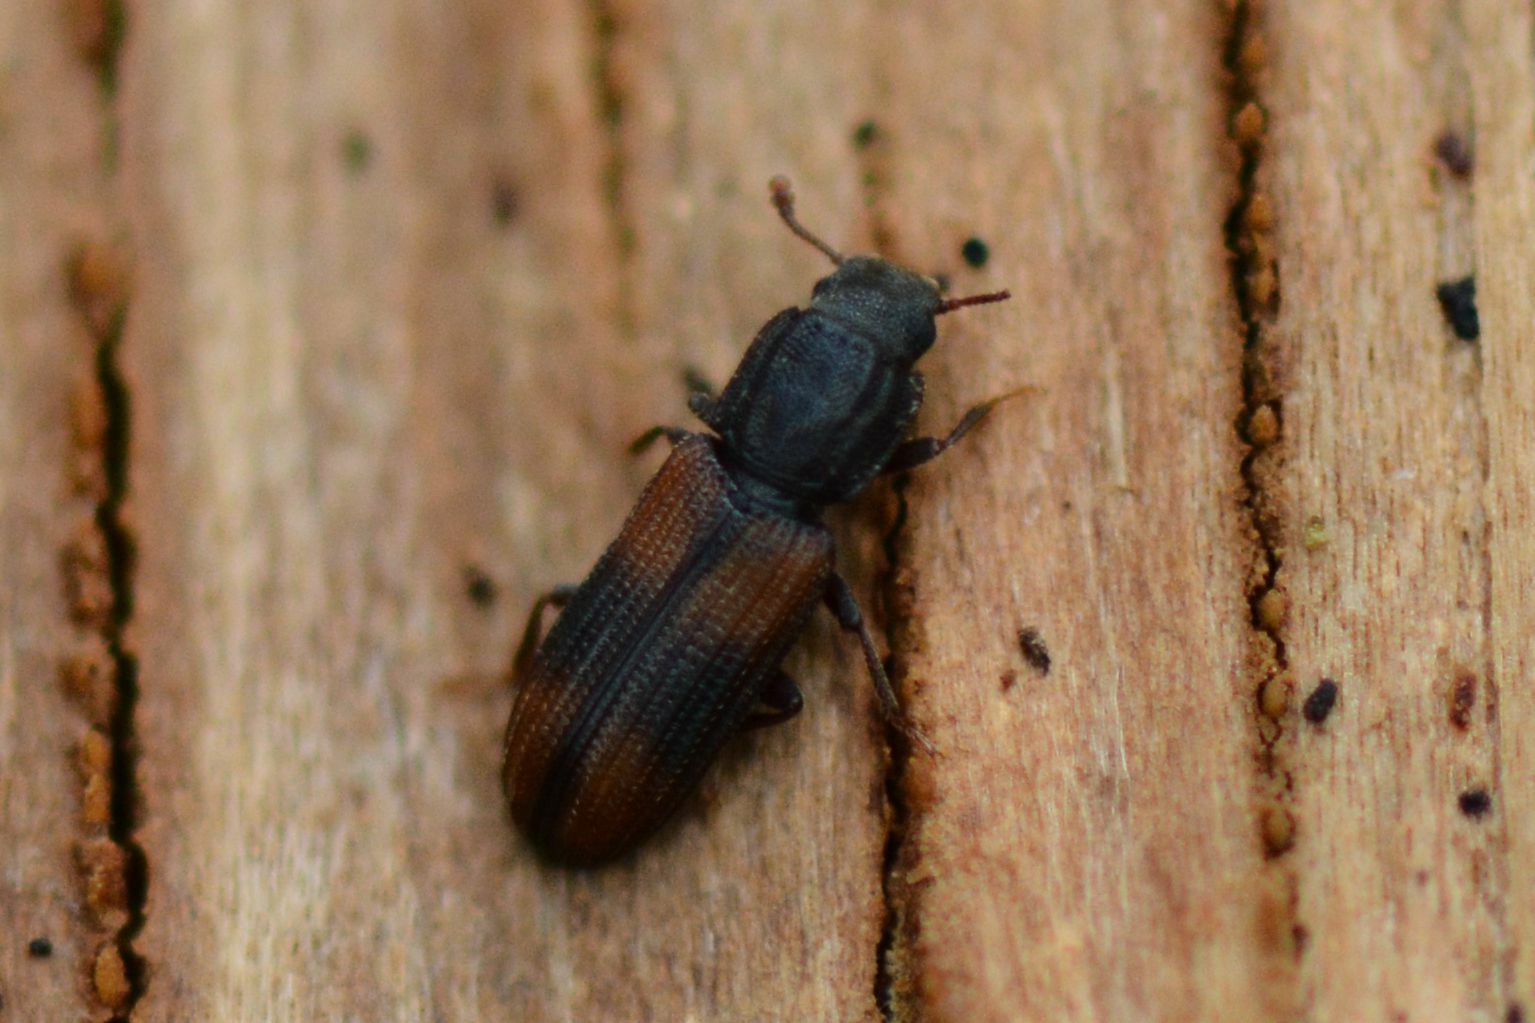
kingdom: Animalia
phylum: Arthropoda
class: Insecta
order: Coleoptera
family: Zopheridae
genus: Bitoma
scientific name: Bitoma crenata
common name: Bark beetle
